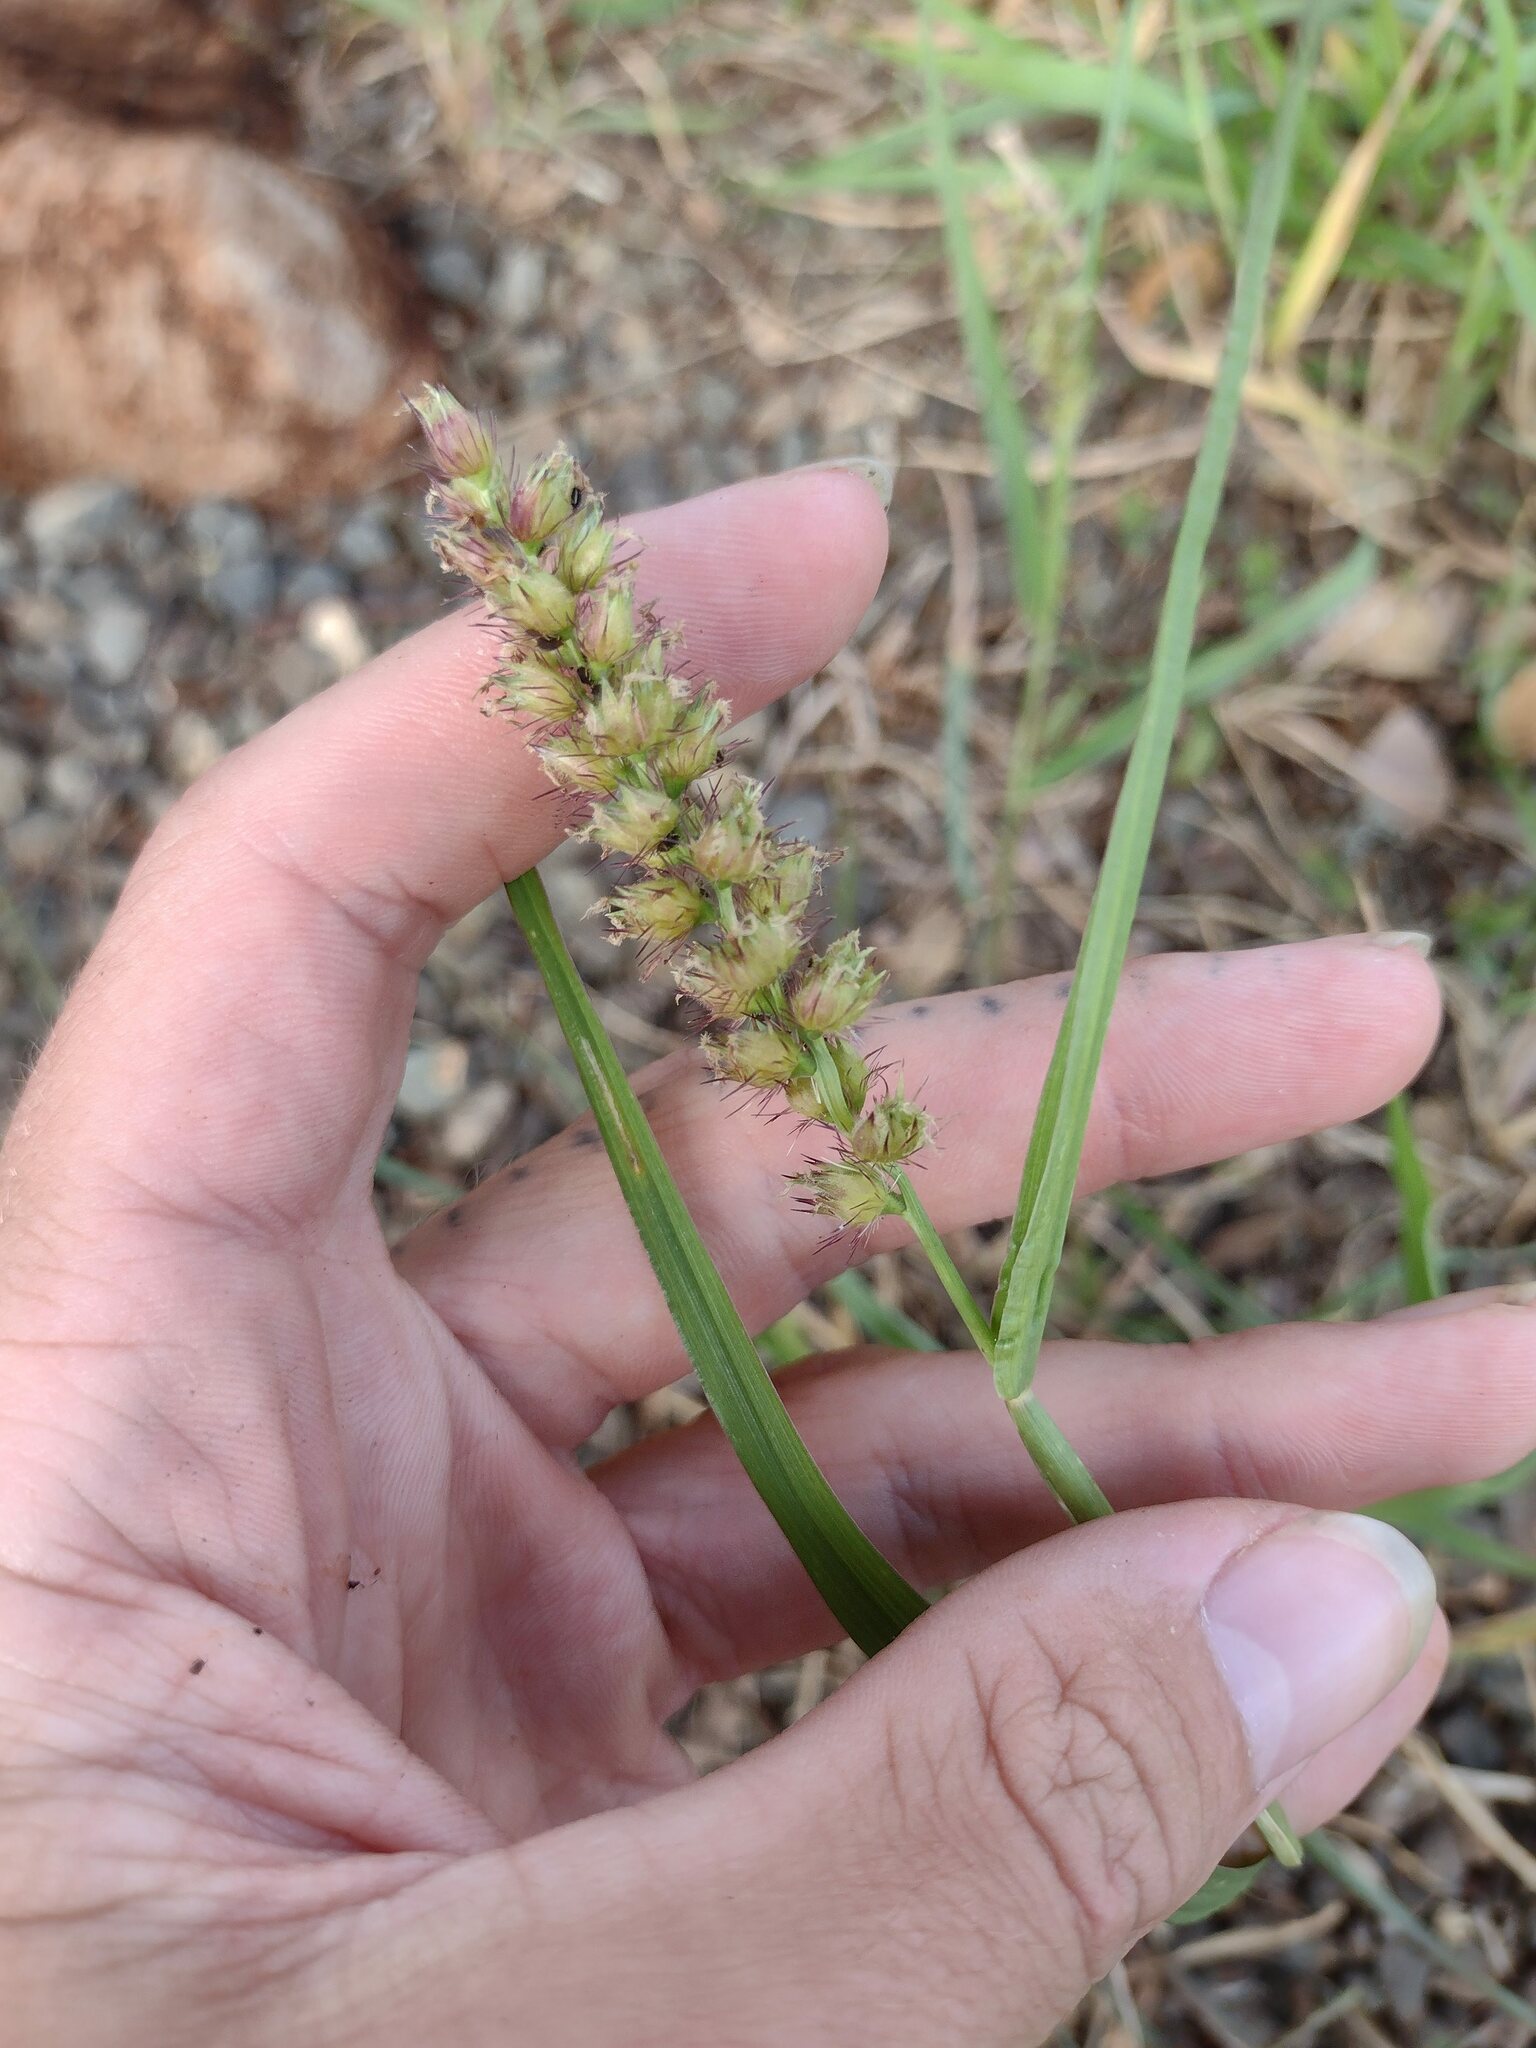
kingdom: Plantae
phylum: Tracheophyta
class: Liliopsida
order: Poales
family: Poaceae
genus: Cenchrus
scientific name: Cenchrus echinatus
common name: Southern sandbur
